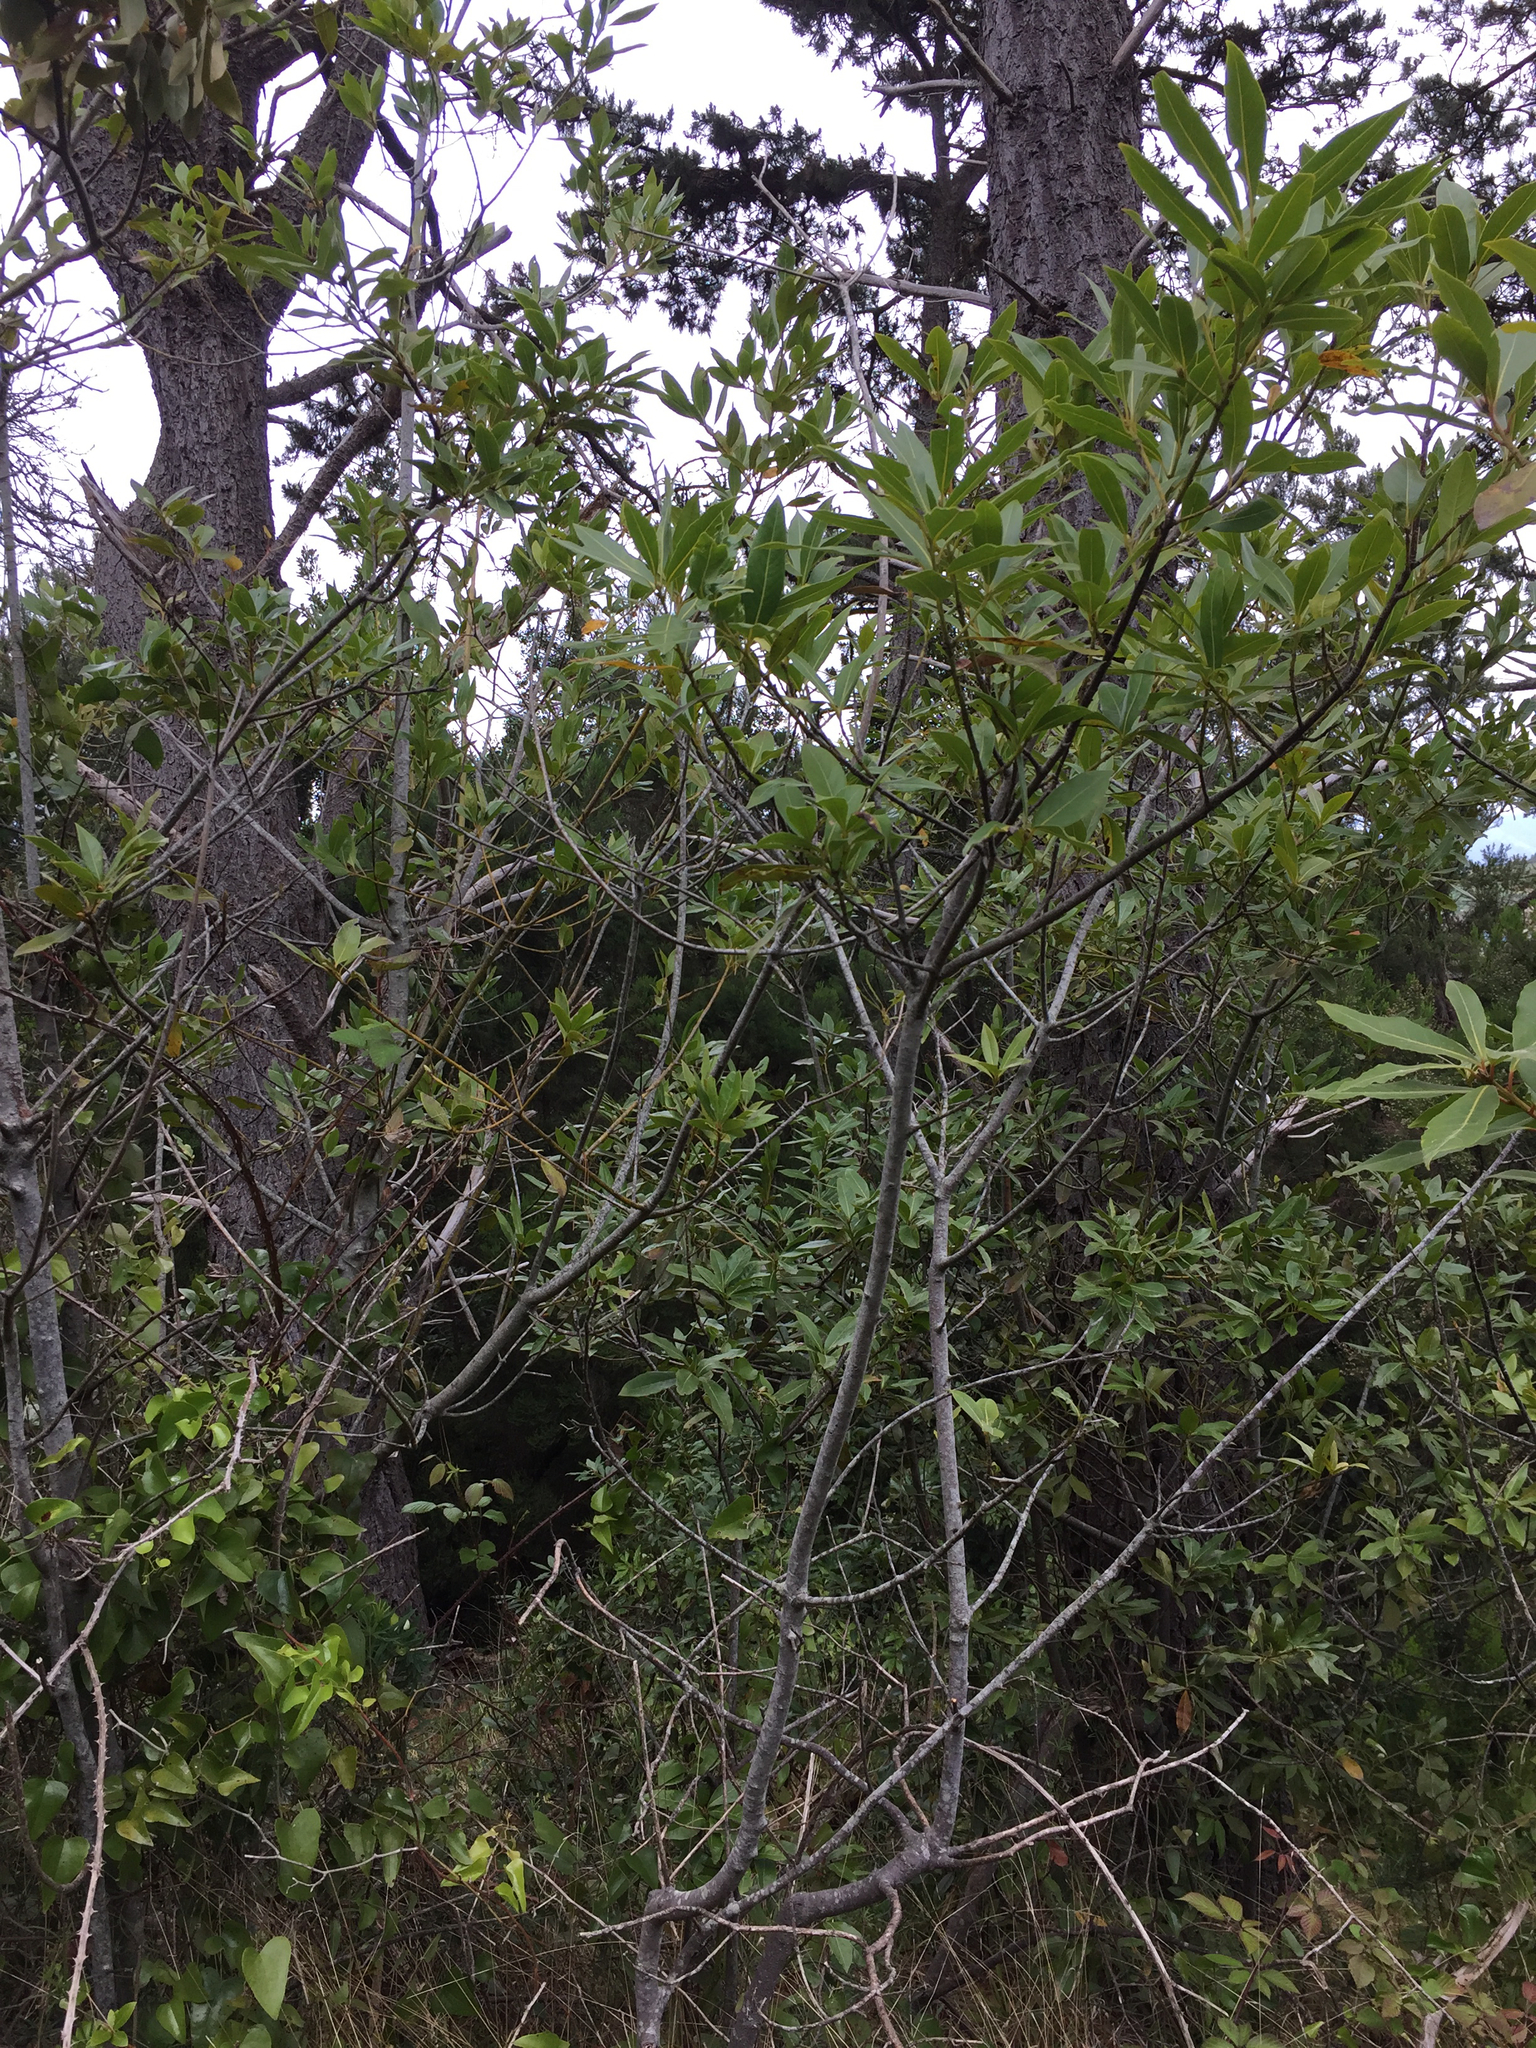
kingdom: Plantae
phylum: Tracheophyta
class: Magnoliopsida
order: Laurales
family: Lauraceae
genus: Laurus
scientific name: Laurus novocanariensis
